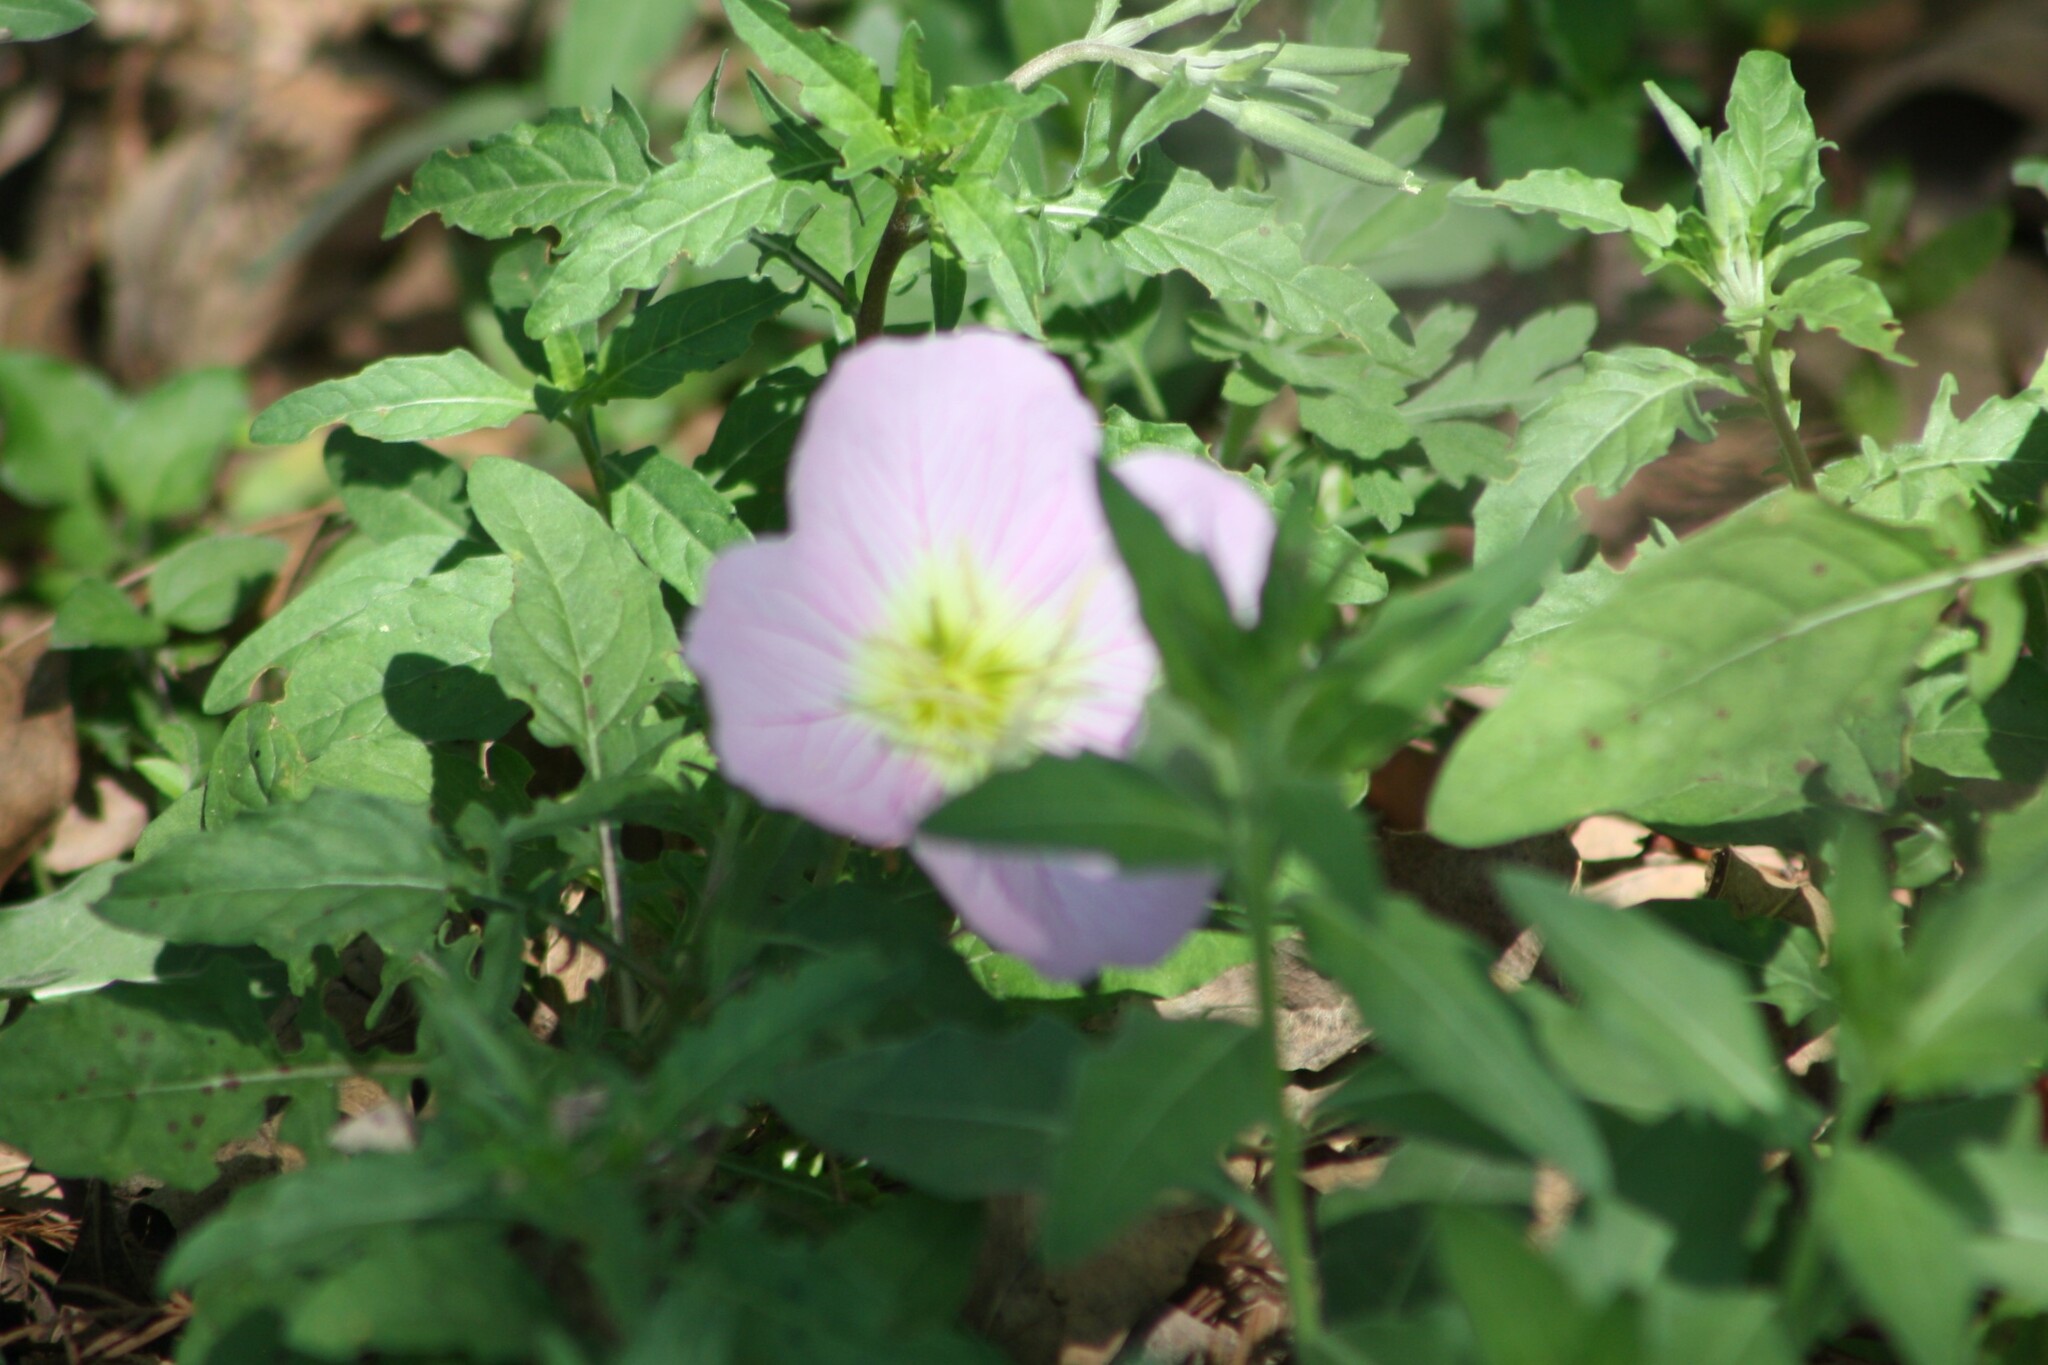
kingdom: Plantae
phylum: Tracheophyta
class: Magnoliopsida
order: Myrtales
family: Onagraceae
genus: Oenothera
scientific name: Oenothera speciosa
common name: White evening-primrose
